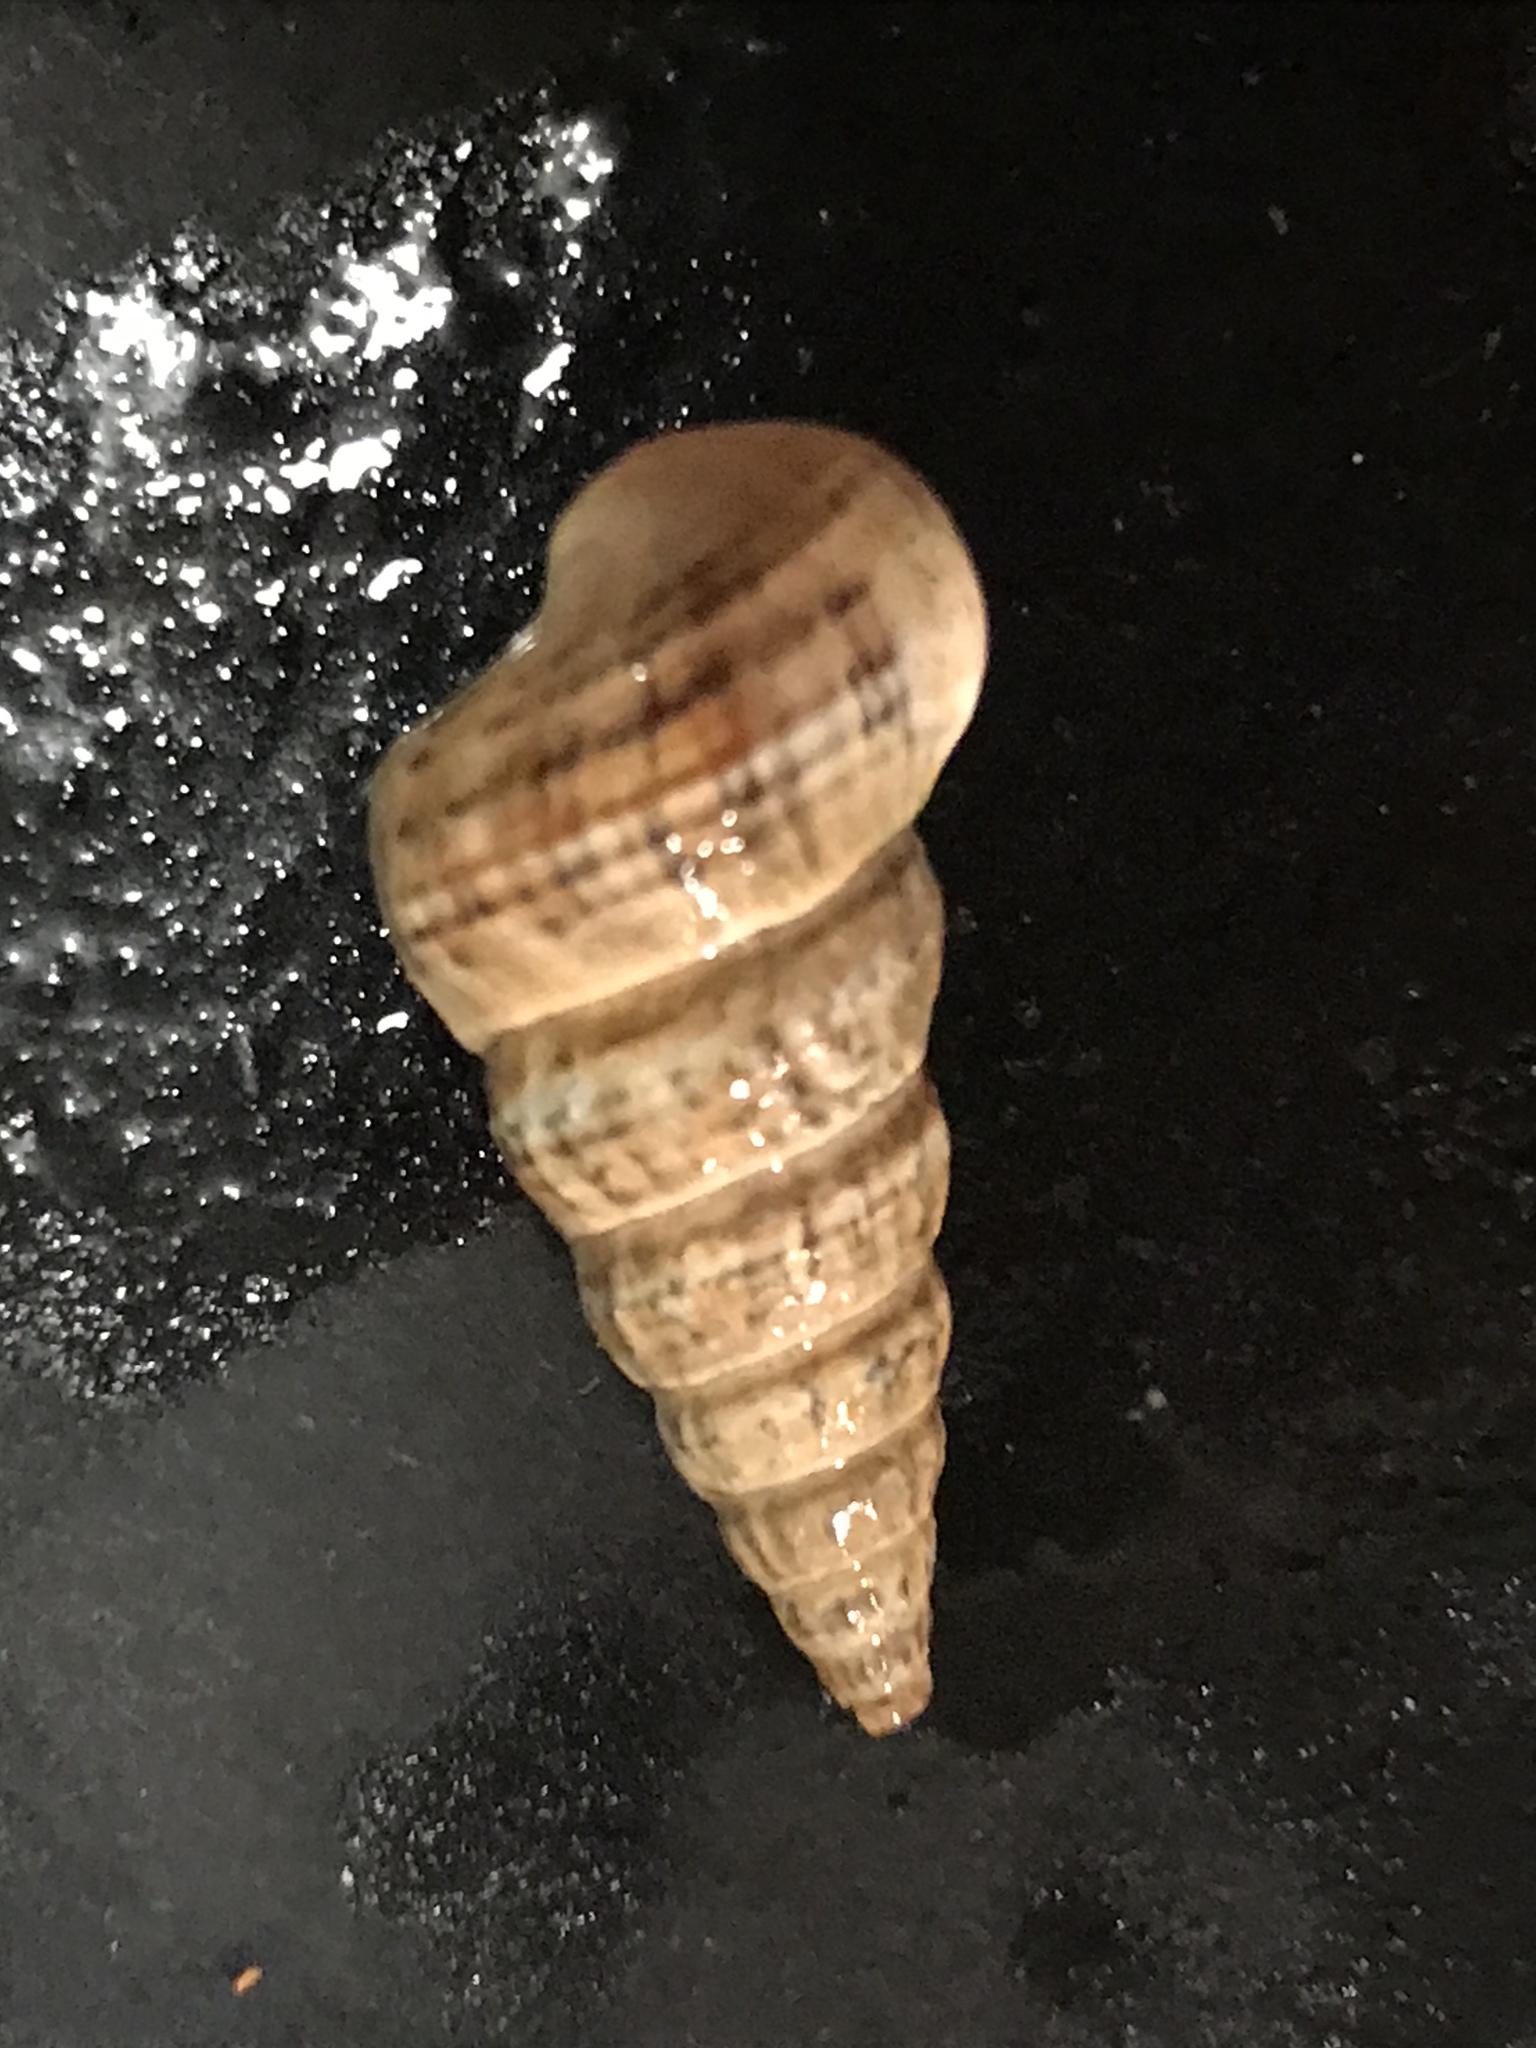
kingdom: Animalia
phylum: Mollusca
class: Gastropoda
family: Potamididae
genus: Cerithideopsis
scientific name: Cerithideopsis californica
